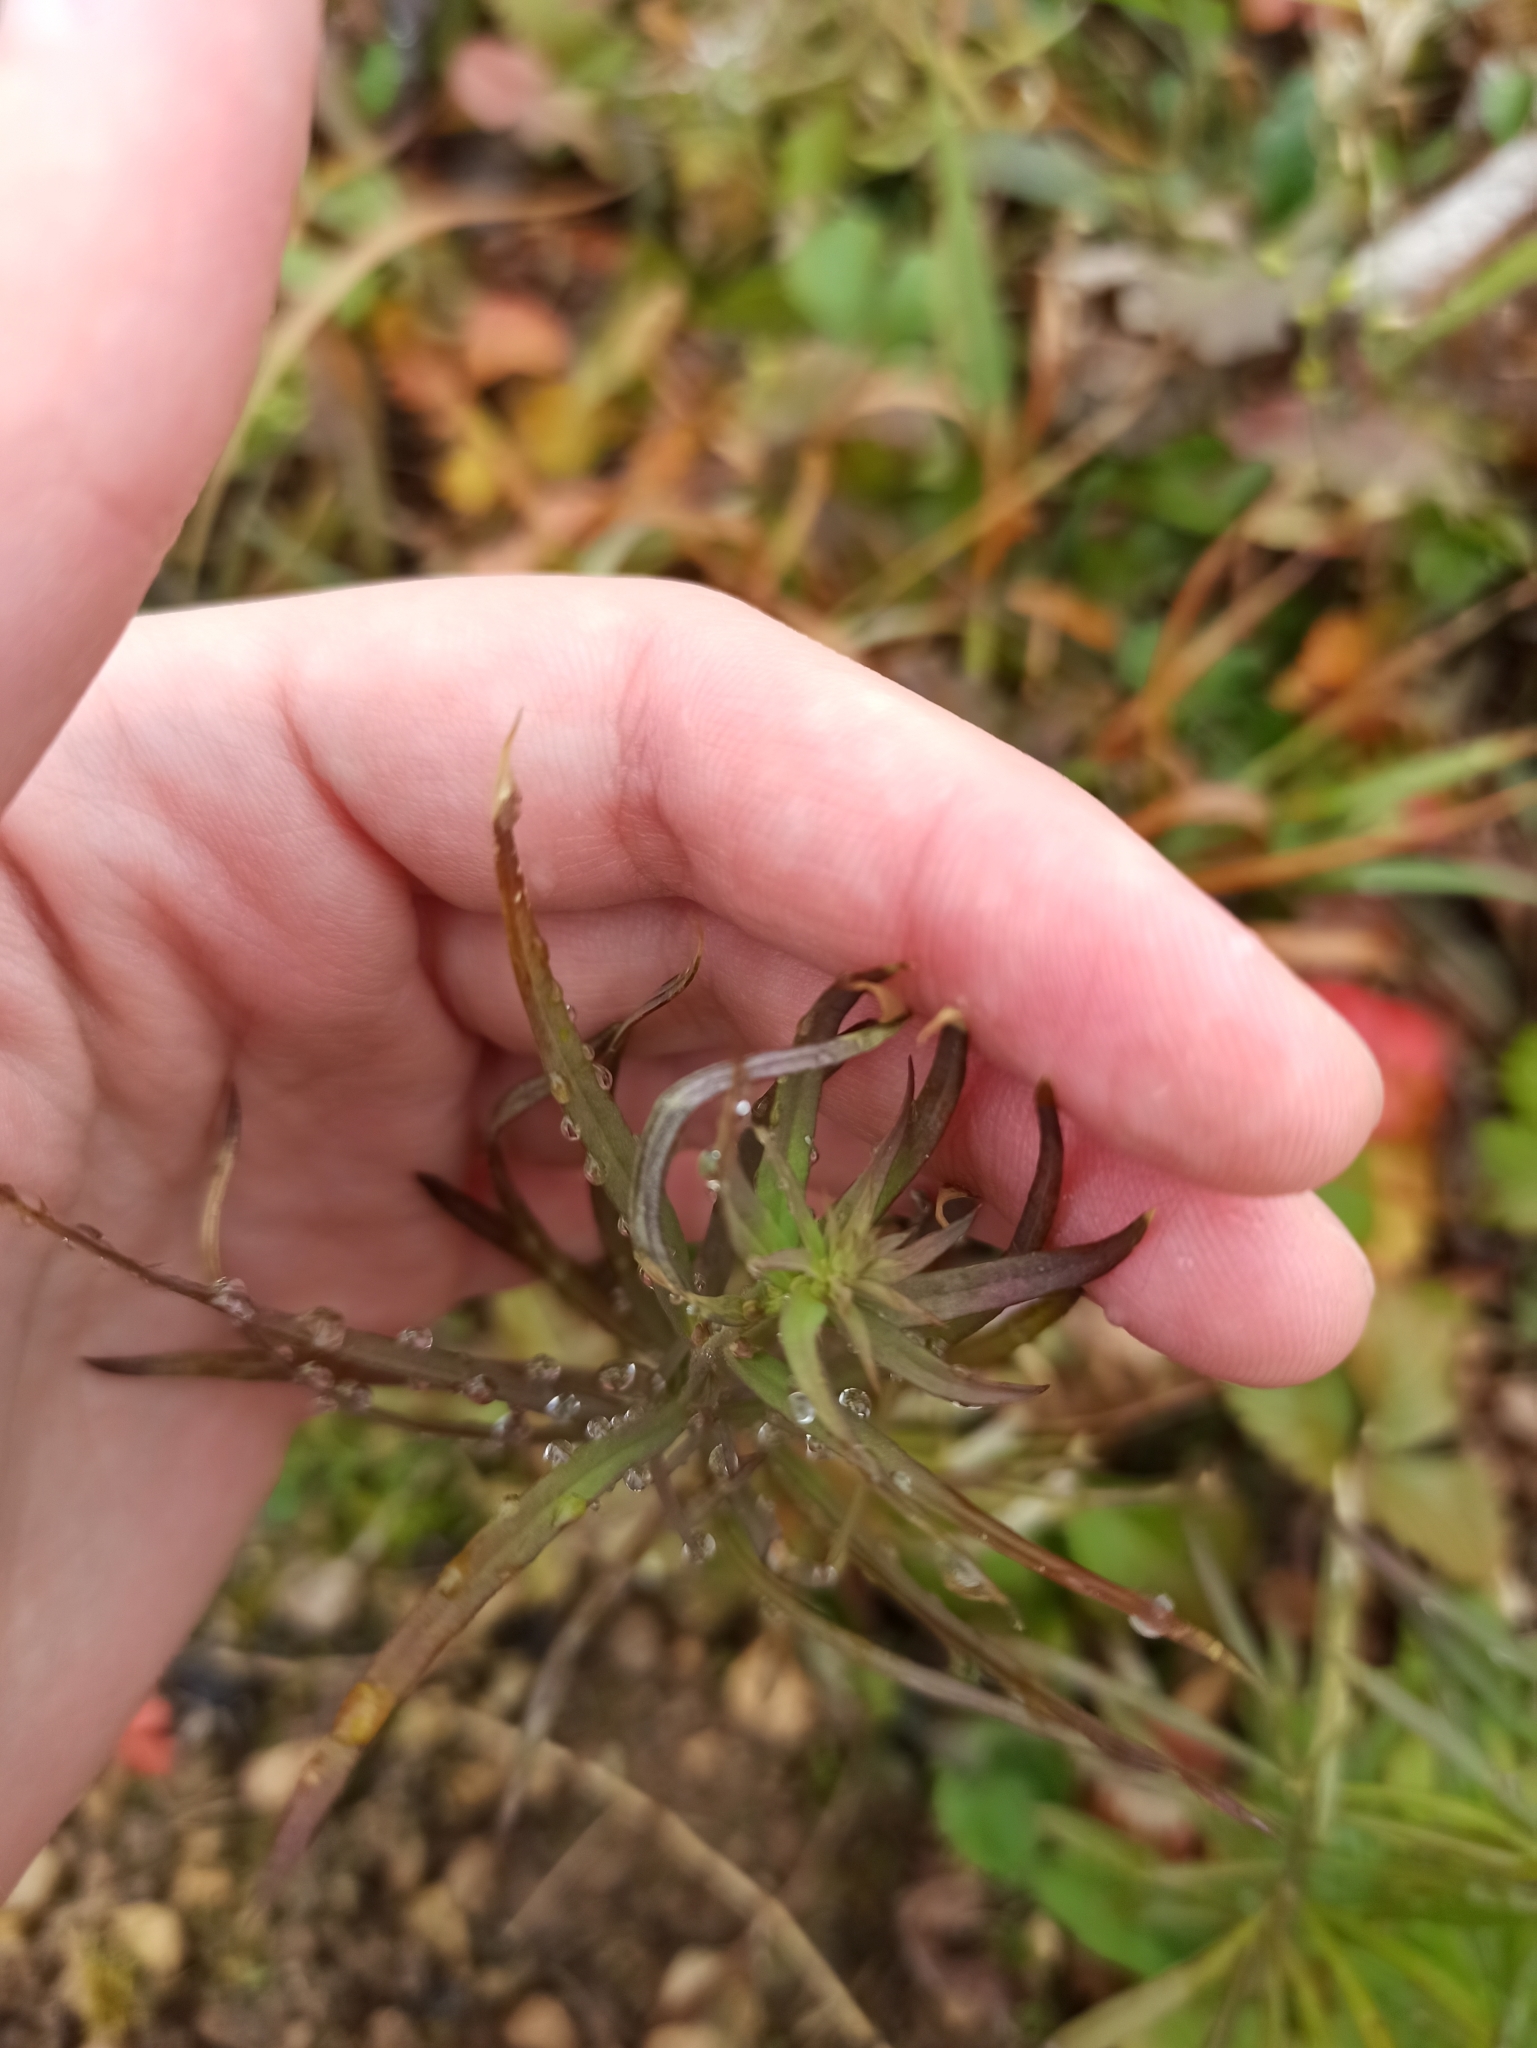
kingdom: Plantae
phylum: Tracheophyta
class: Magnoliopsida
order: Lamiales
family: Plantaginaceae
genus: Linaria
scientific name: Linaria vulgaris
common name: Butter and eggs
